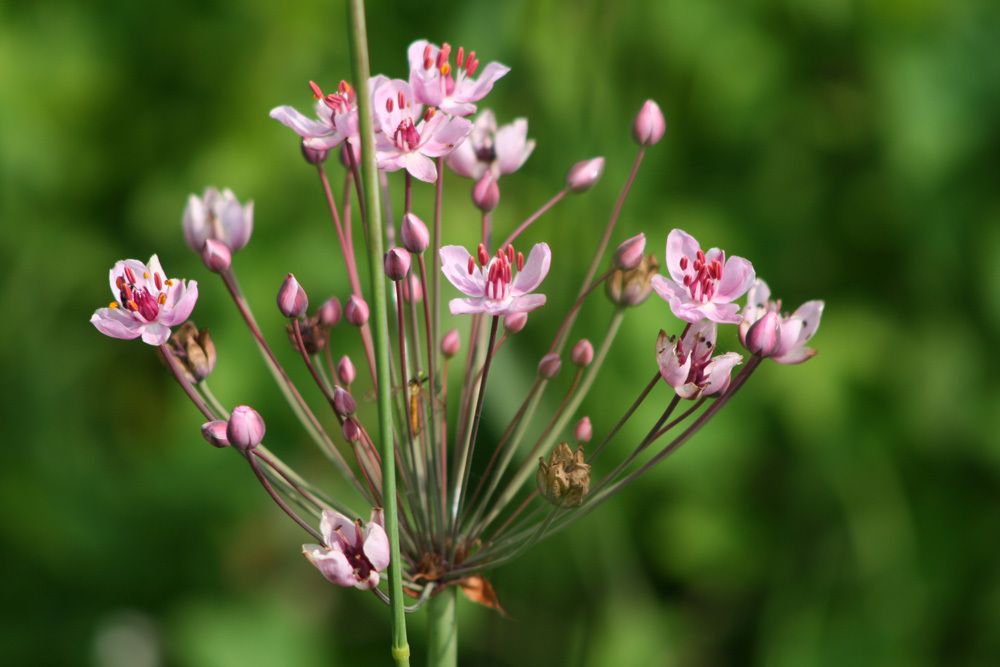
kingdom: Plantae
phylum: Tracheophyta
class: Liliopsida
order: Alismatales
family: Butomaceae
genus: Butomus
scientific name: Butomus umbellatus
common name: Flowering-rush
